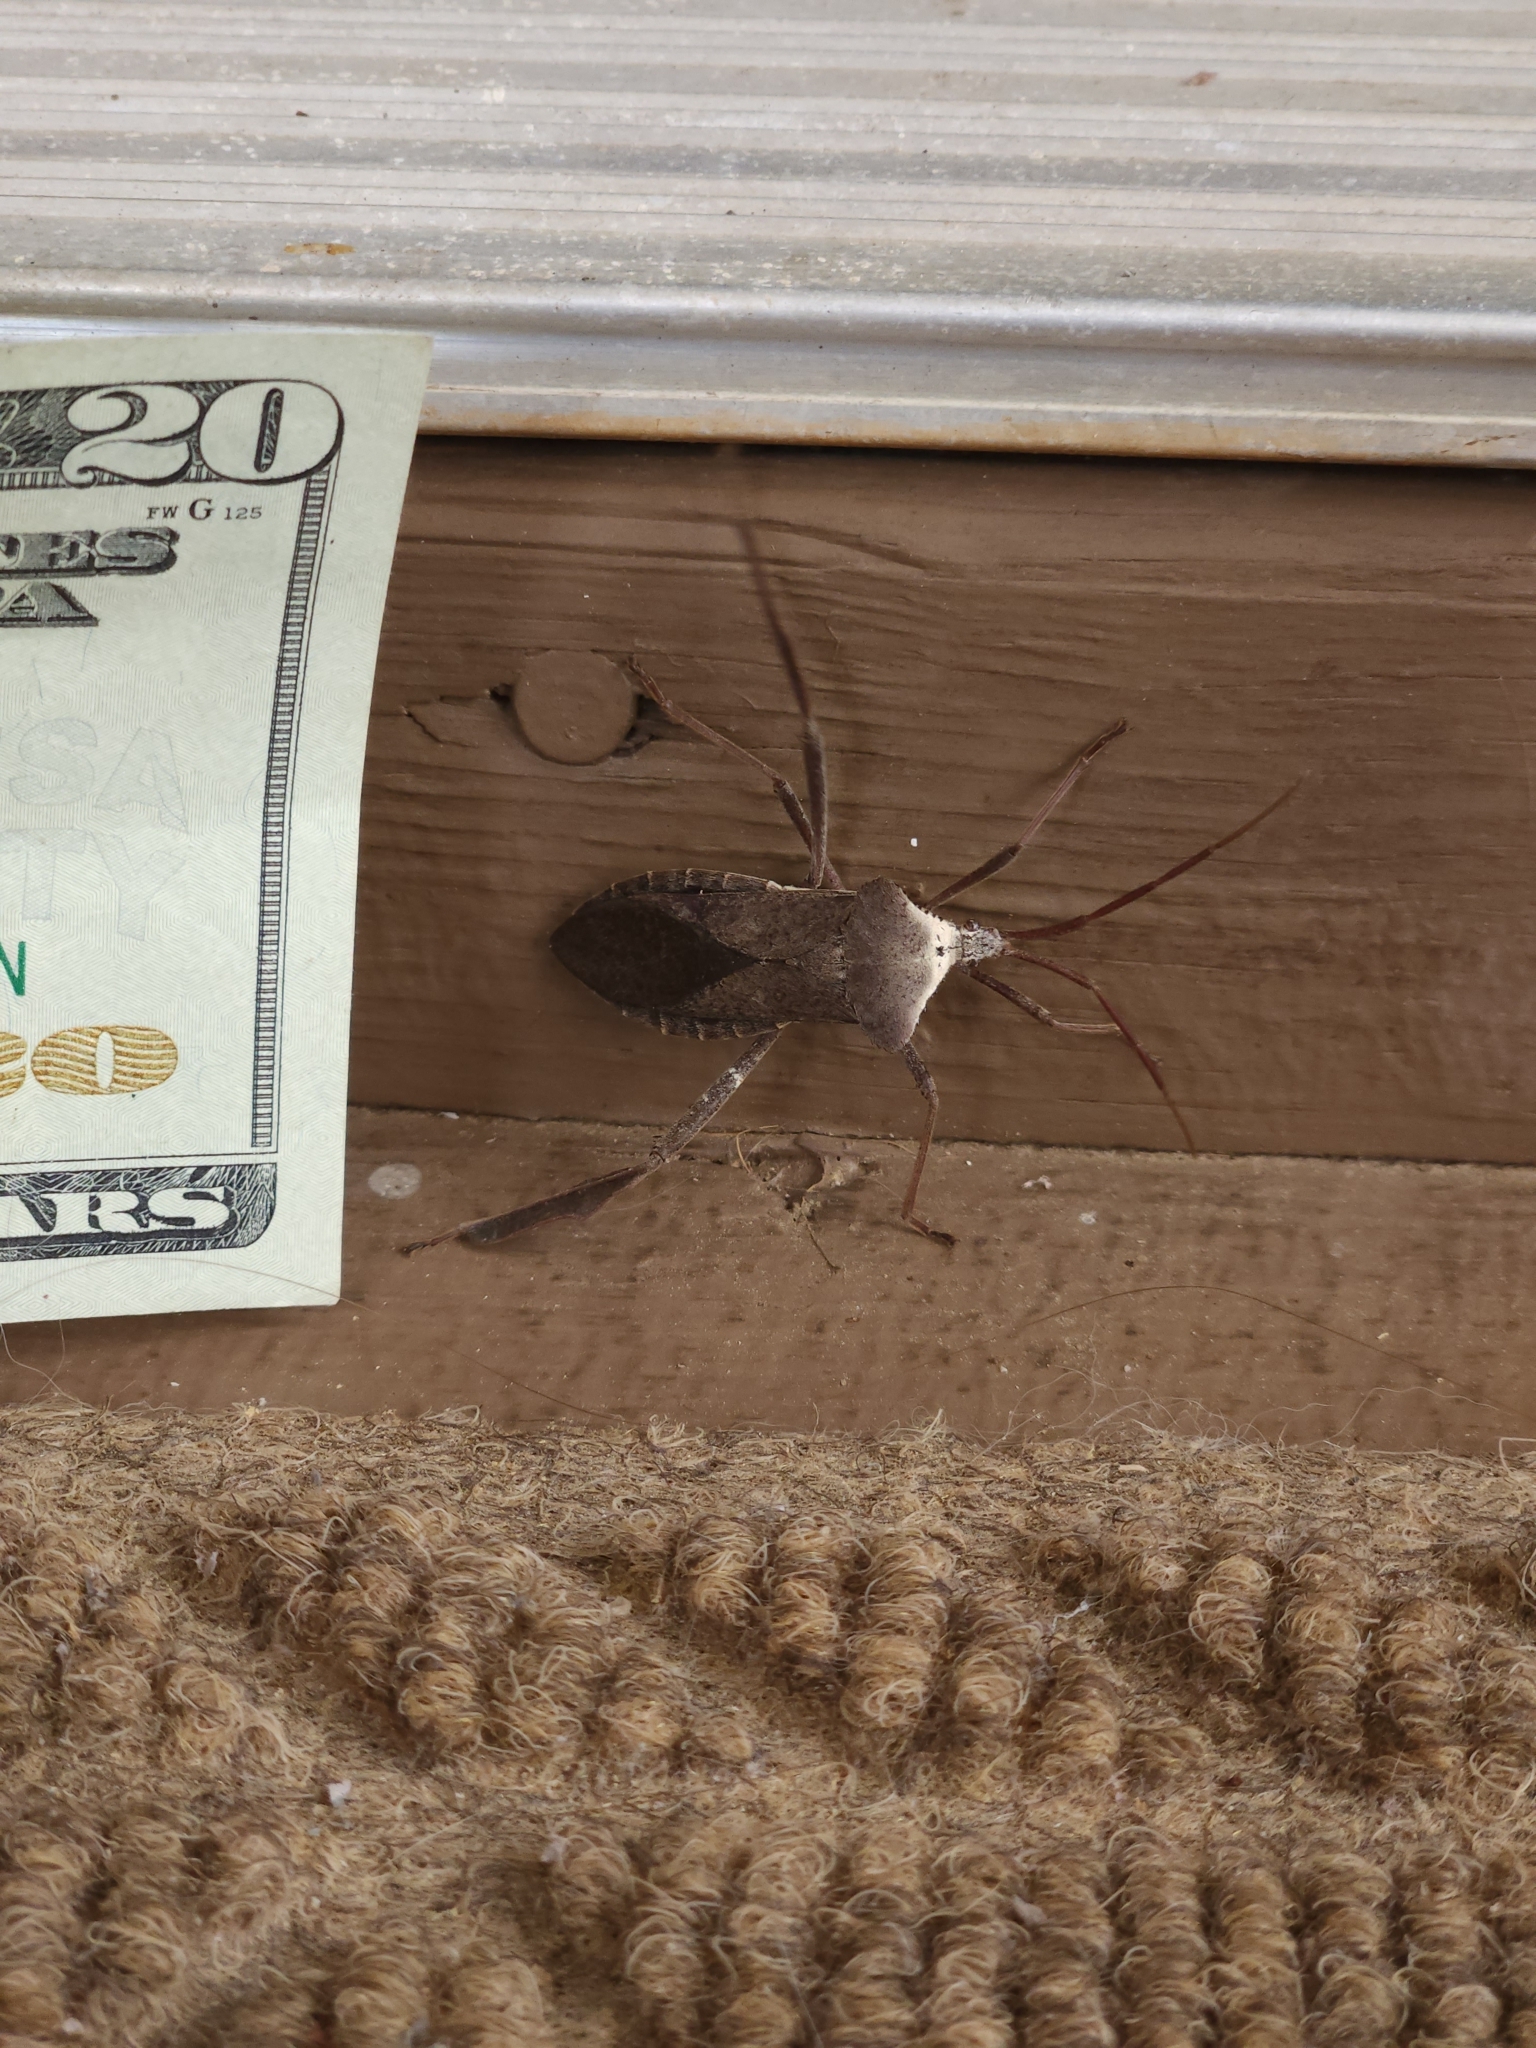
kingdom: Animalia
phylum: Arthropoda
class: Insecta
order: Hemiptera
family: Coreidae
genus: Acanthocephala
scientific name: Acanthocephala declivis
